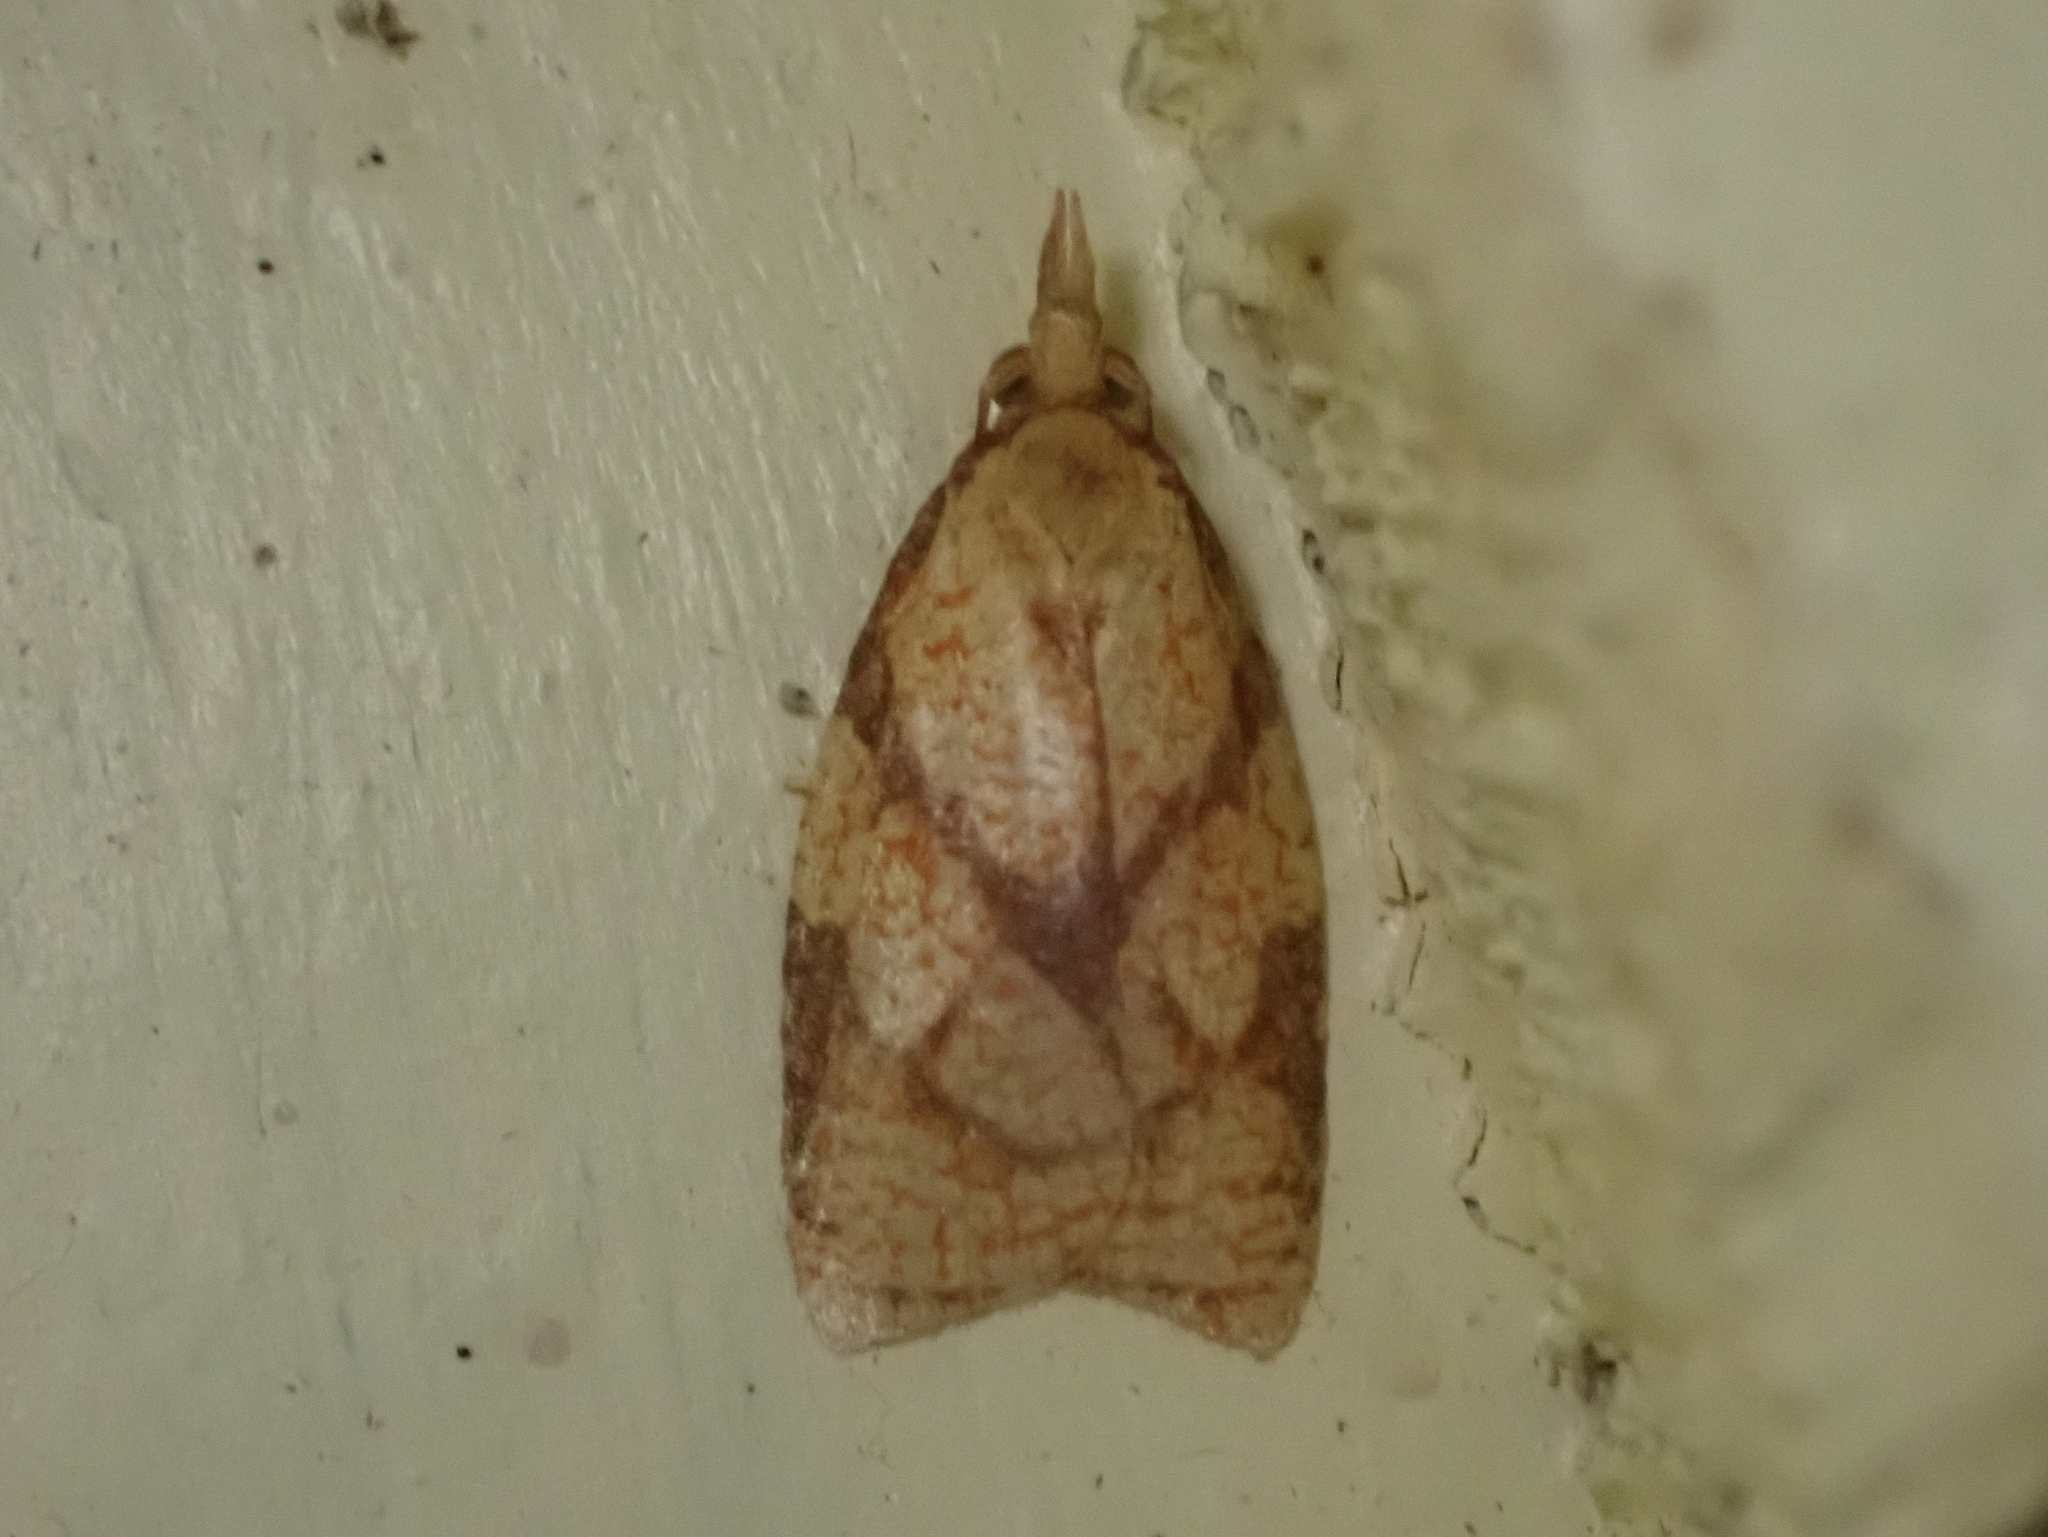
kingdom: Animalia
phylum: Arthropoda
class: Insecta
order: Lepidoptera
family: Tortricidae
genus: Cenopis
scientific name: Cenopis reticulatana
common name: Reticulated fruitworm moth
